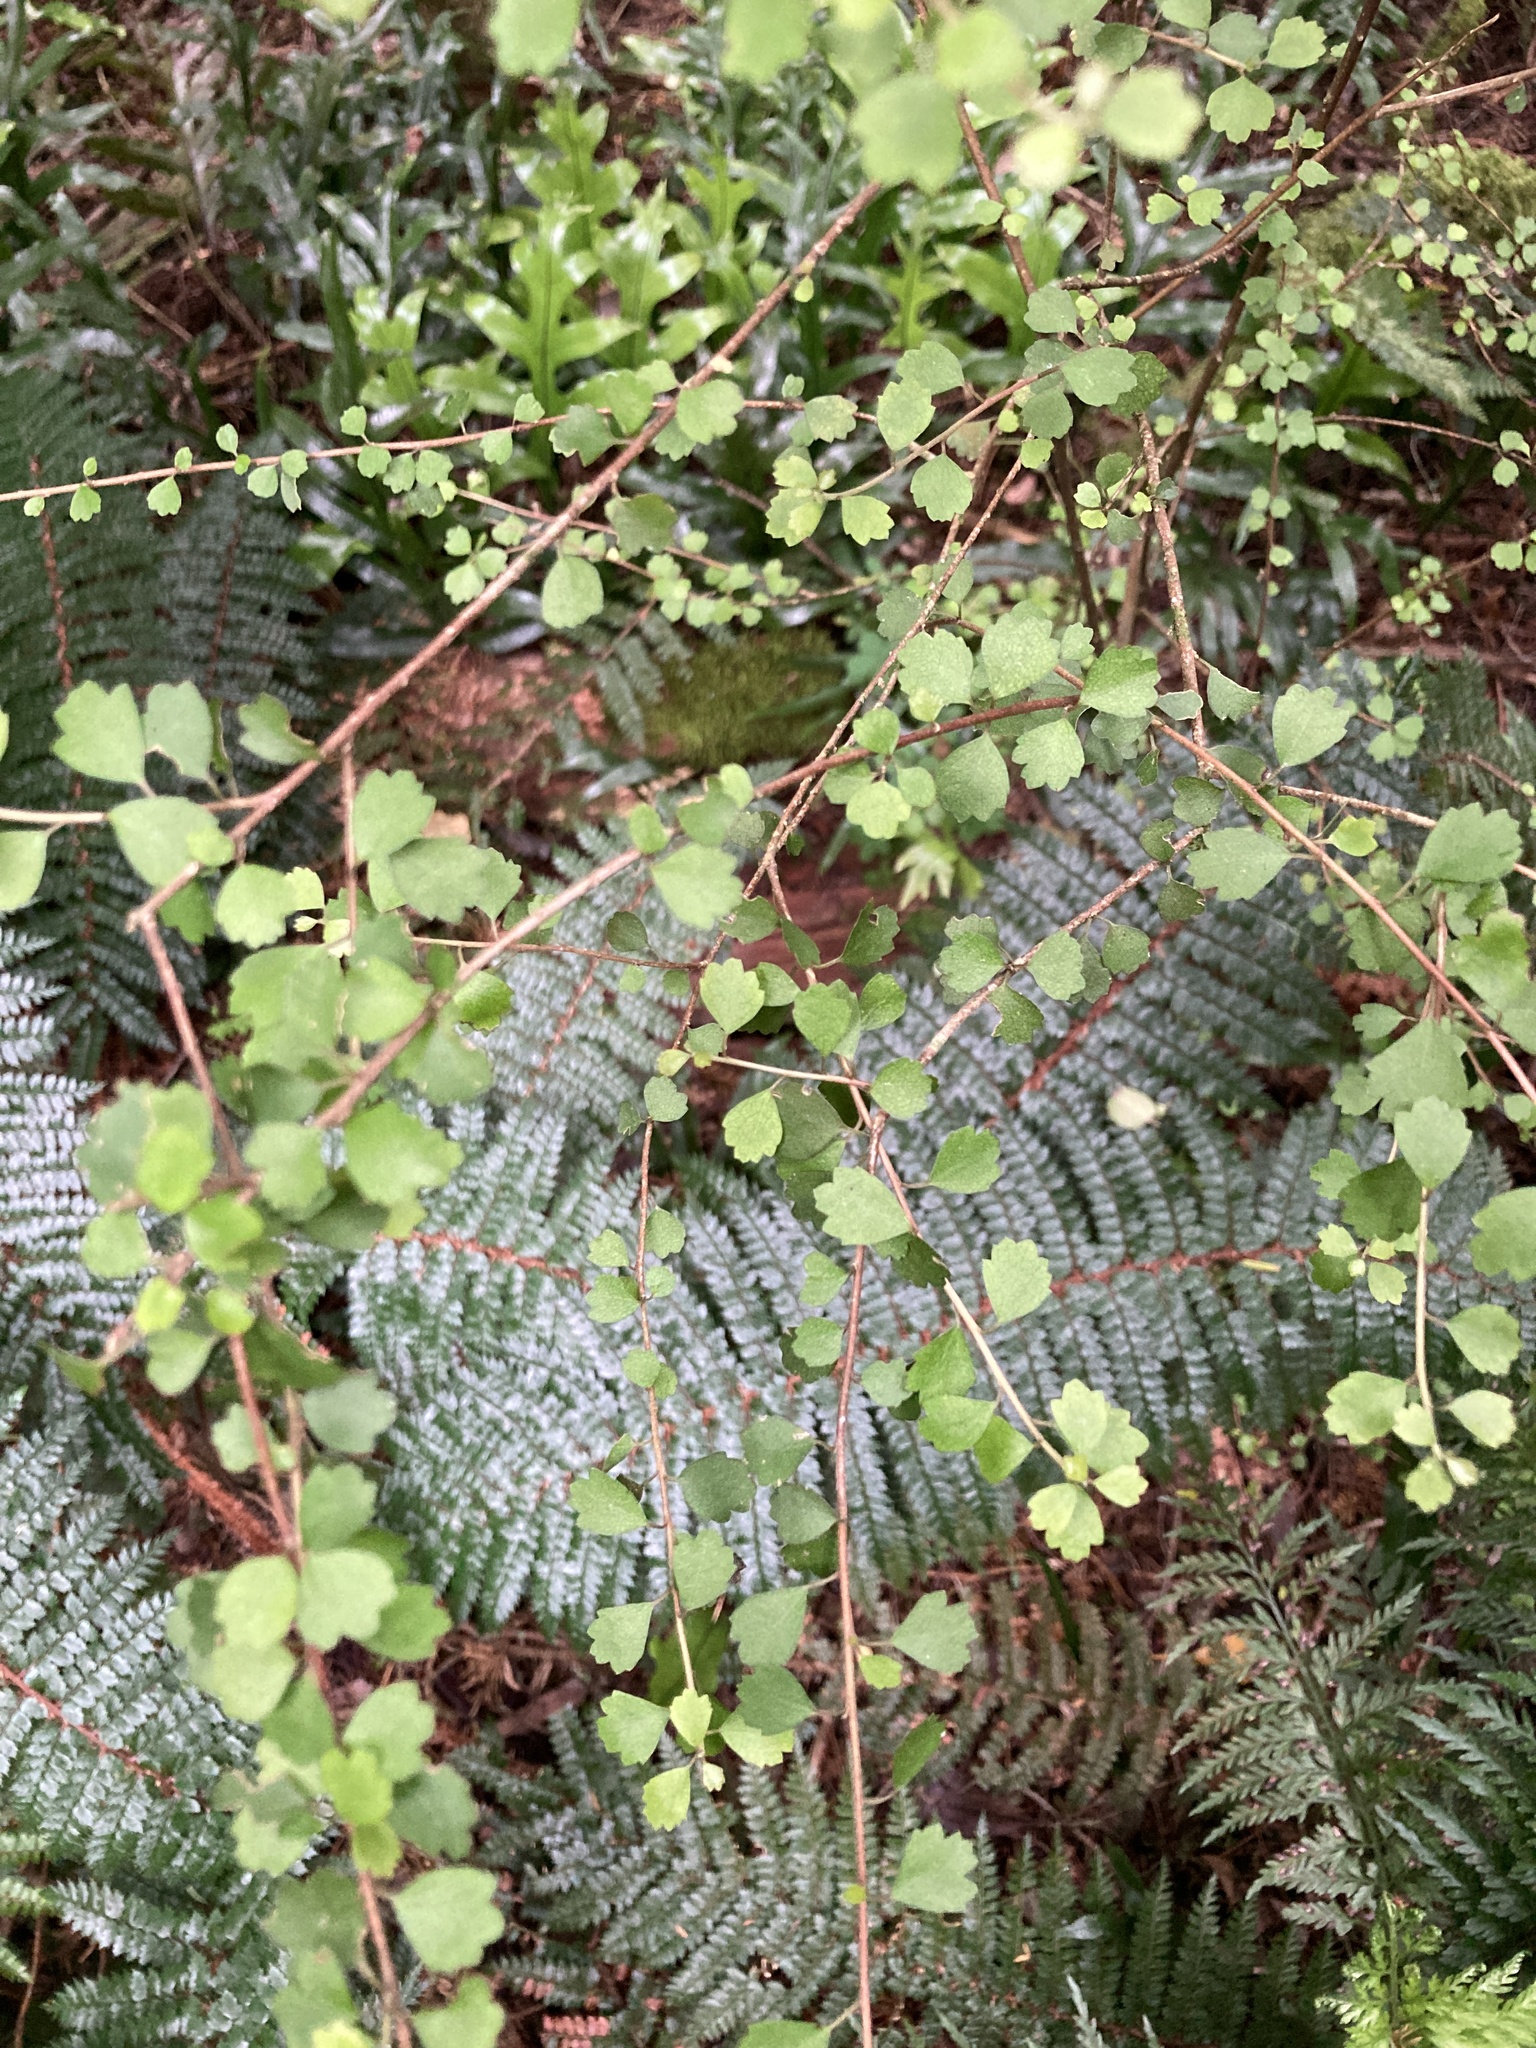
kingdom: Plantae
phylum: Tracheophyta
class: Magnoliopsida
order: Malvales
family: Malvaceae
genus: Hoheria
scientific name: Hoheria angustifolia
